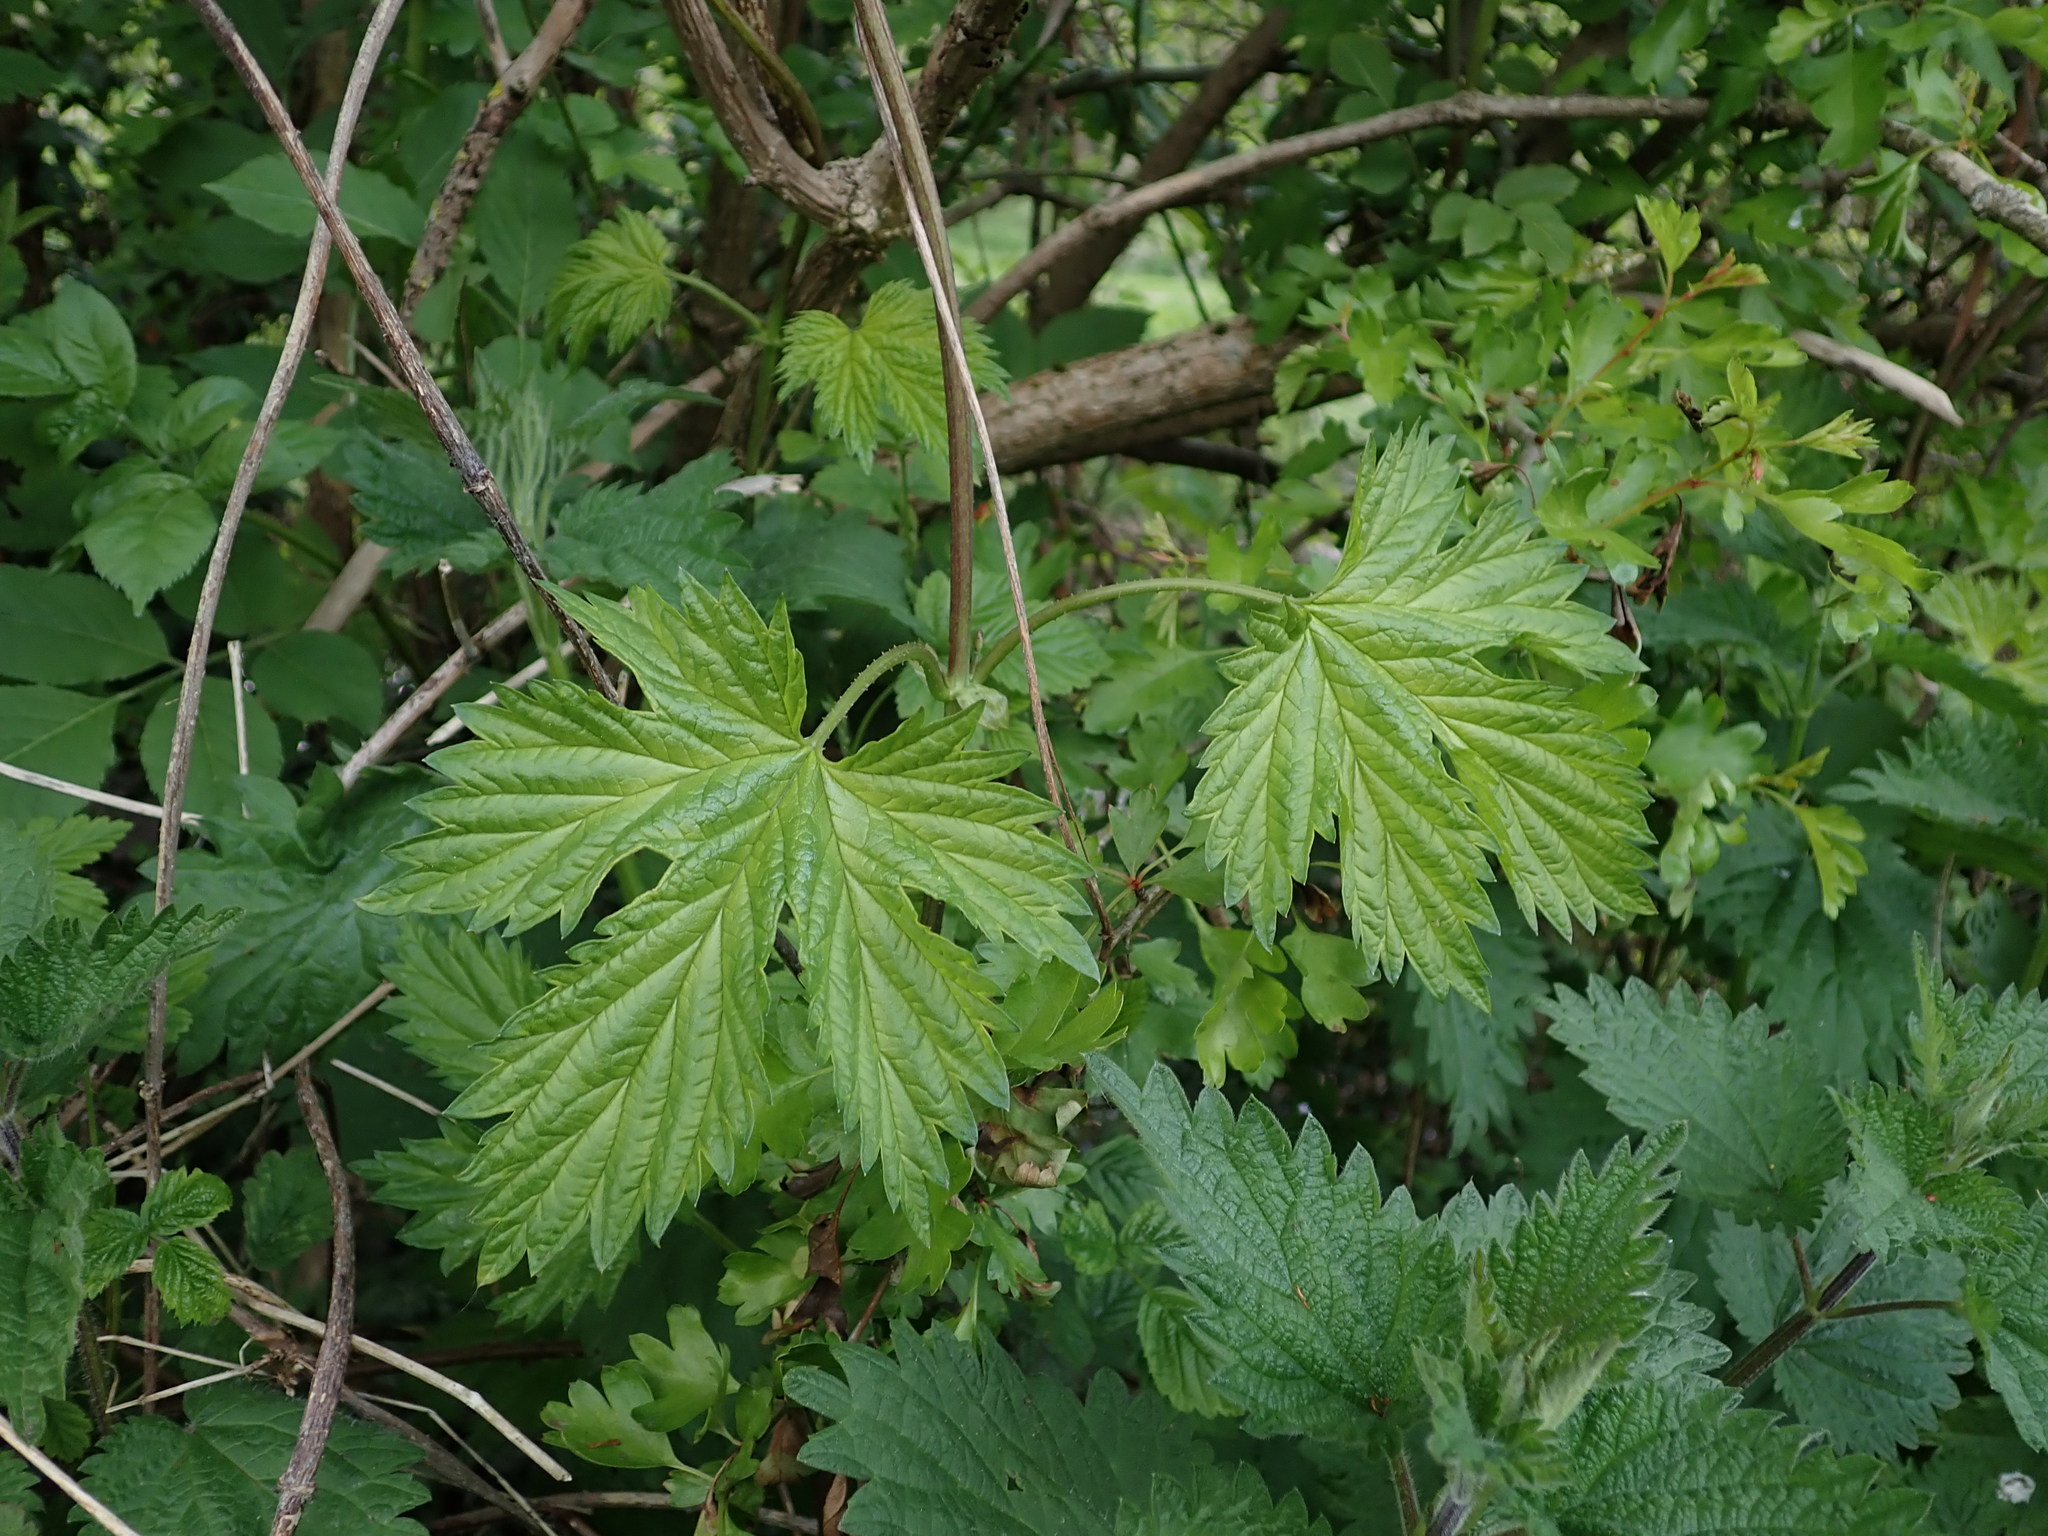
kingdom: Plantae
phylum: Tracheophyta
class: Magnoliopsida
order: Rosales
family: Cannabaceae
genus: Humulus
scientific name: Humulus lupulus
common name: Hop
